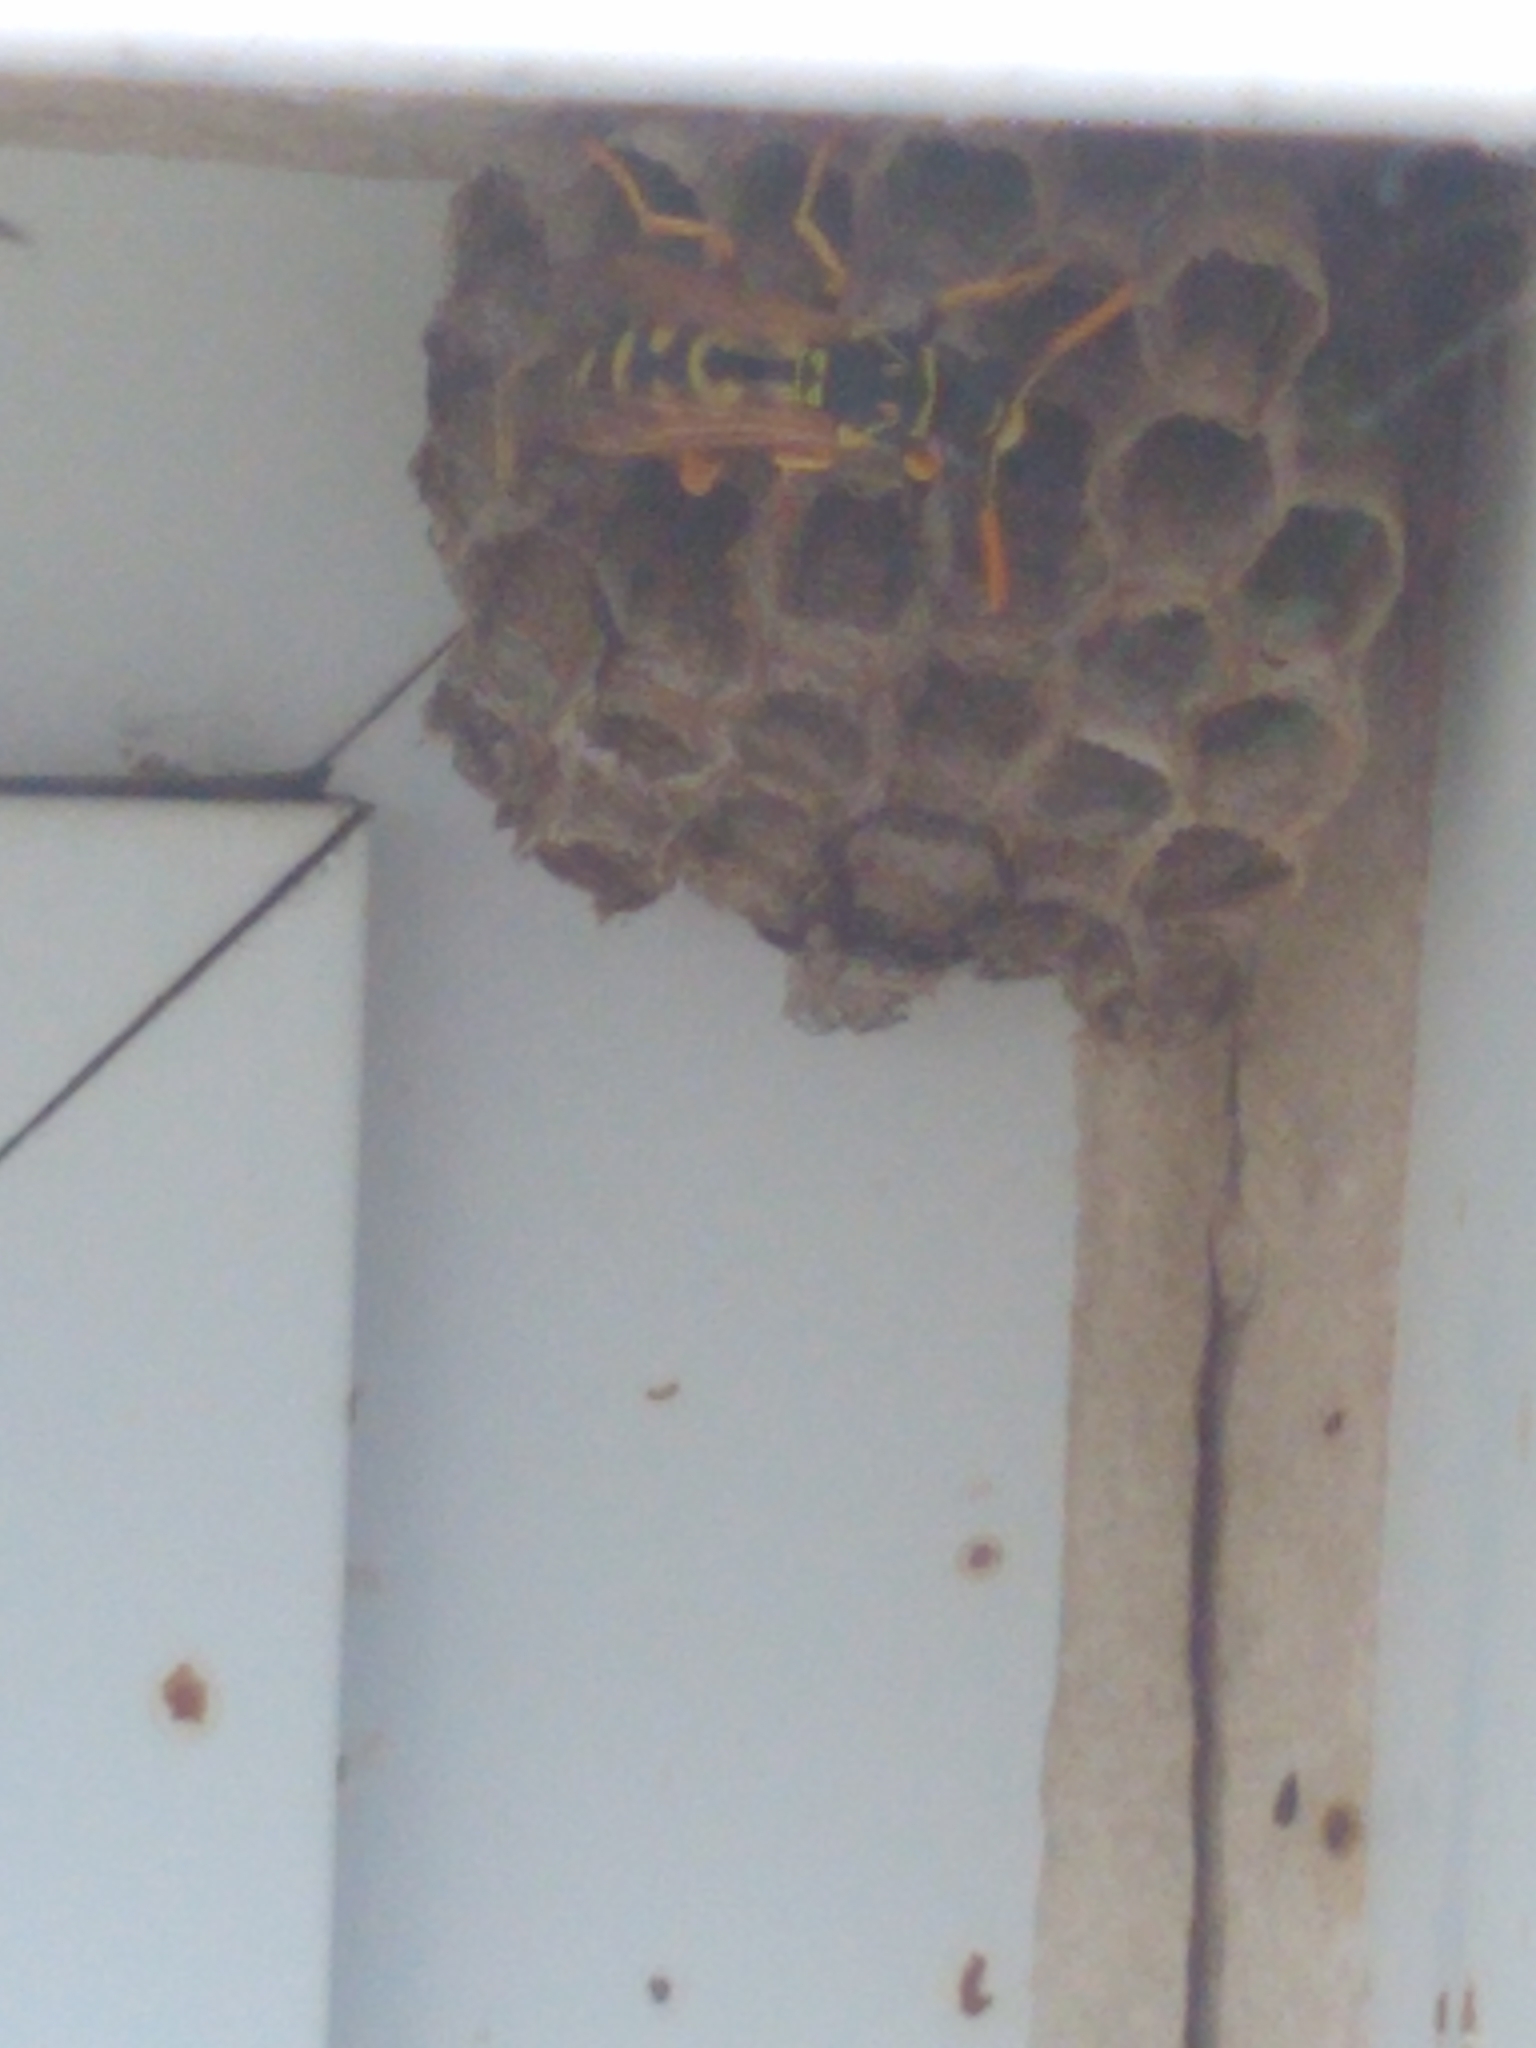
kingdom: Animalia
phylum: Arthropoda
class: Insecta
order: Hymenoptera
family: Eumenidae
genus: Polistes
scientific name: Polistes dominula
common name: Paper wasp
